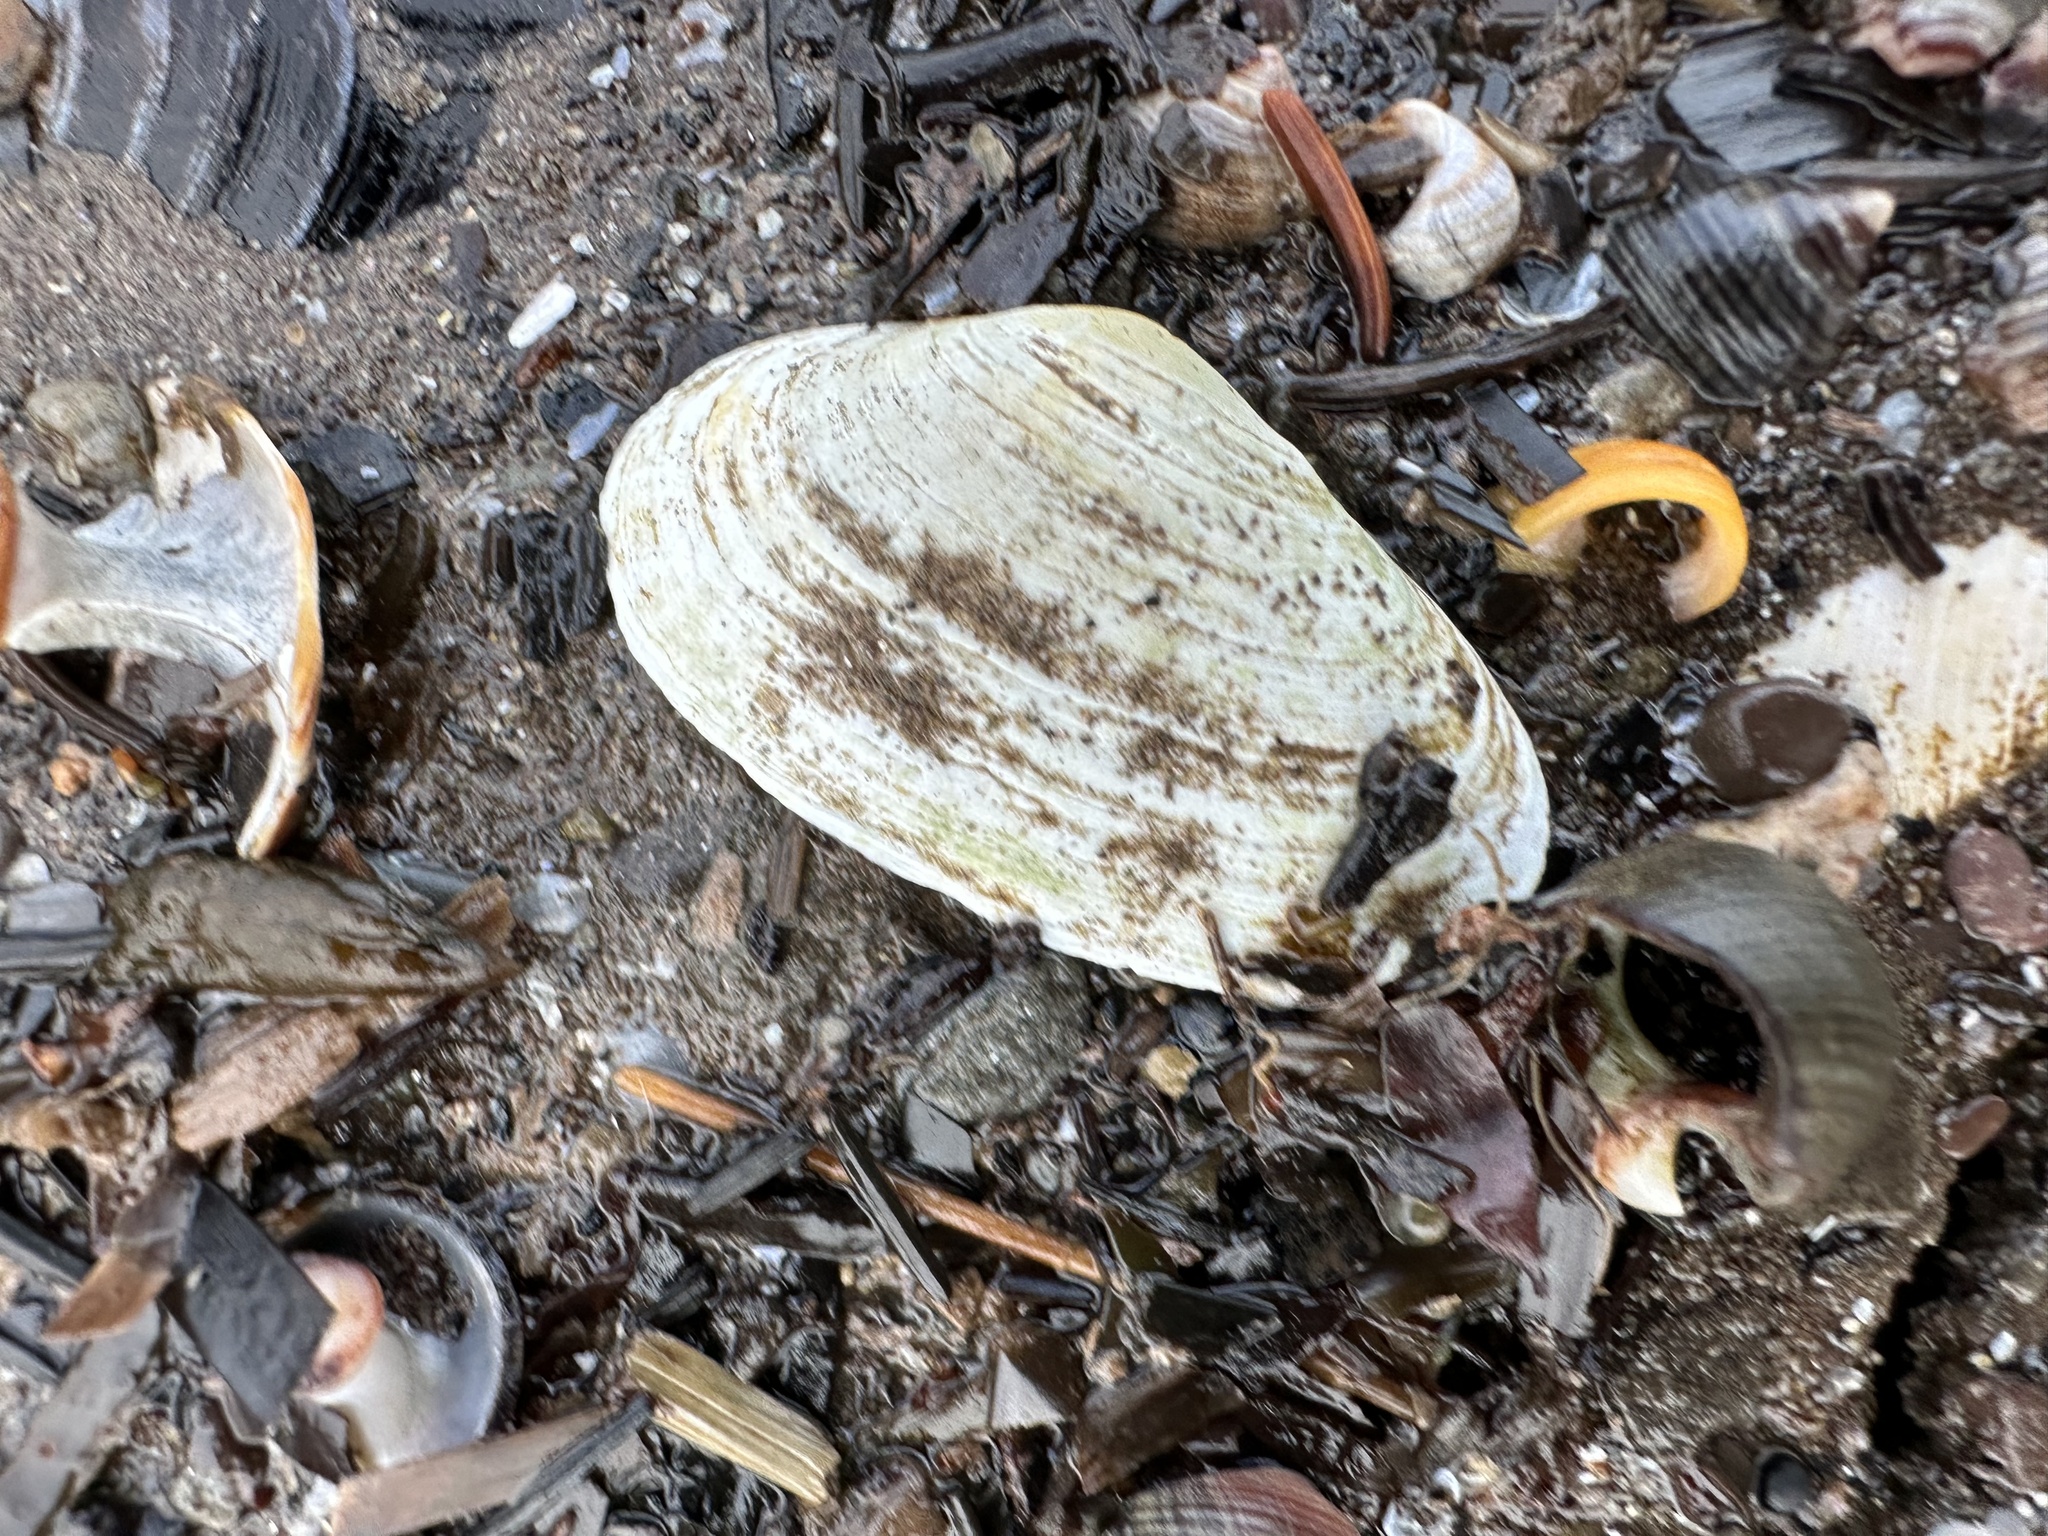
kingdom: Animalia
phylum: Mollusca
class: Bivalvia
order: Myida
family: Myidae
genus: Mya
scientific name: Mya arenaria
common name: Soft-shelled clam
